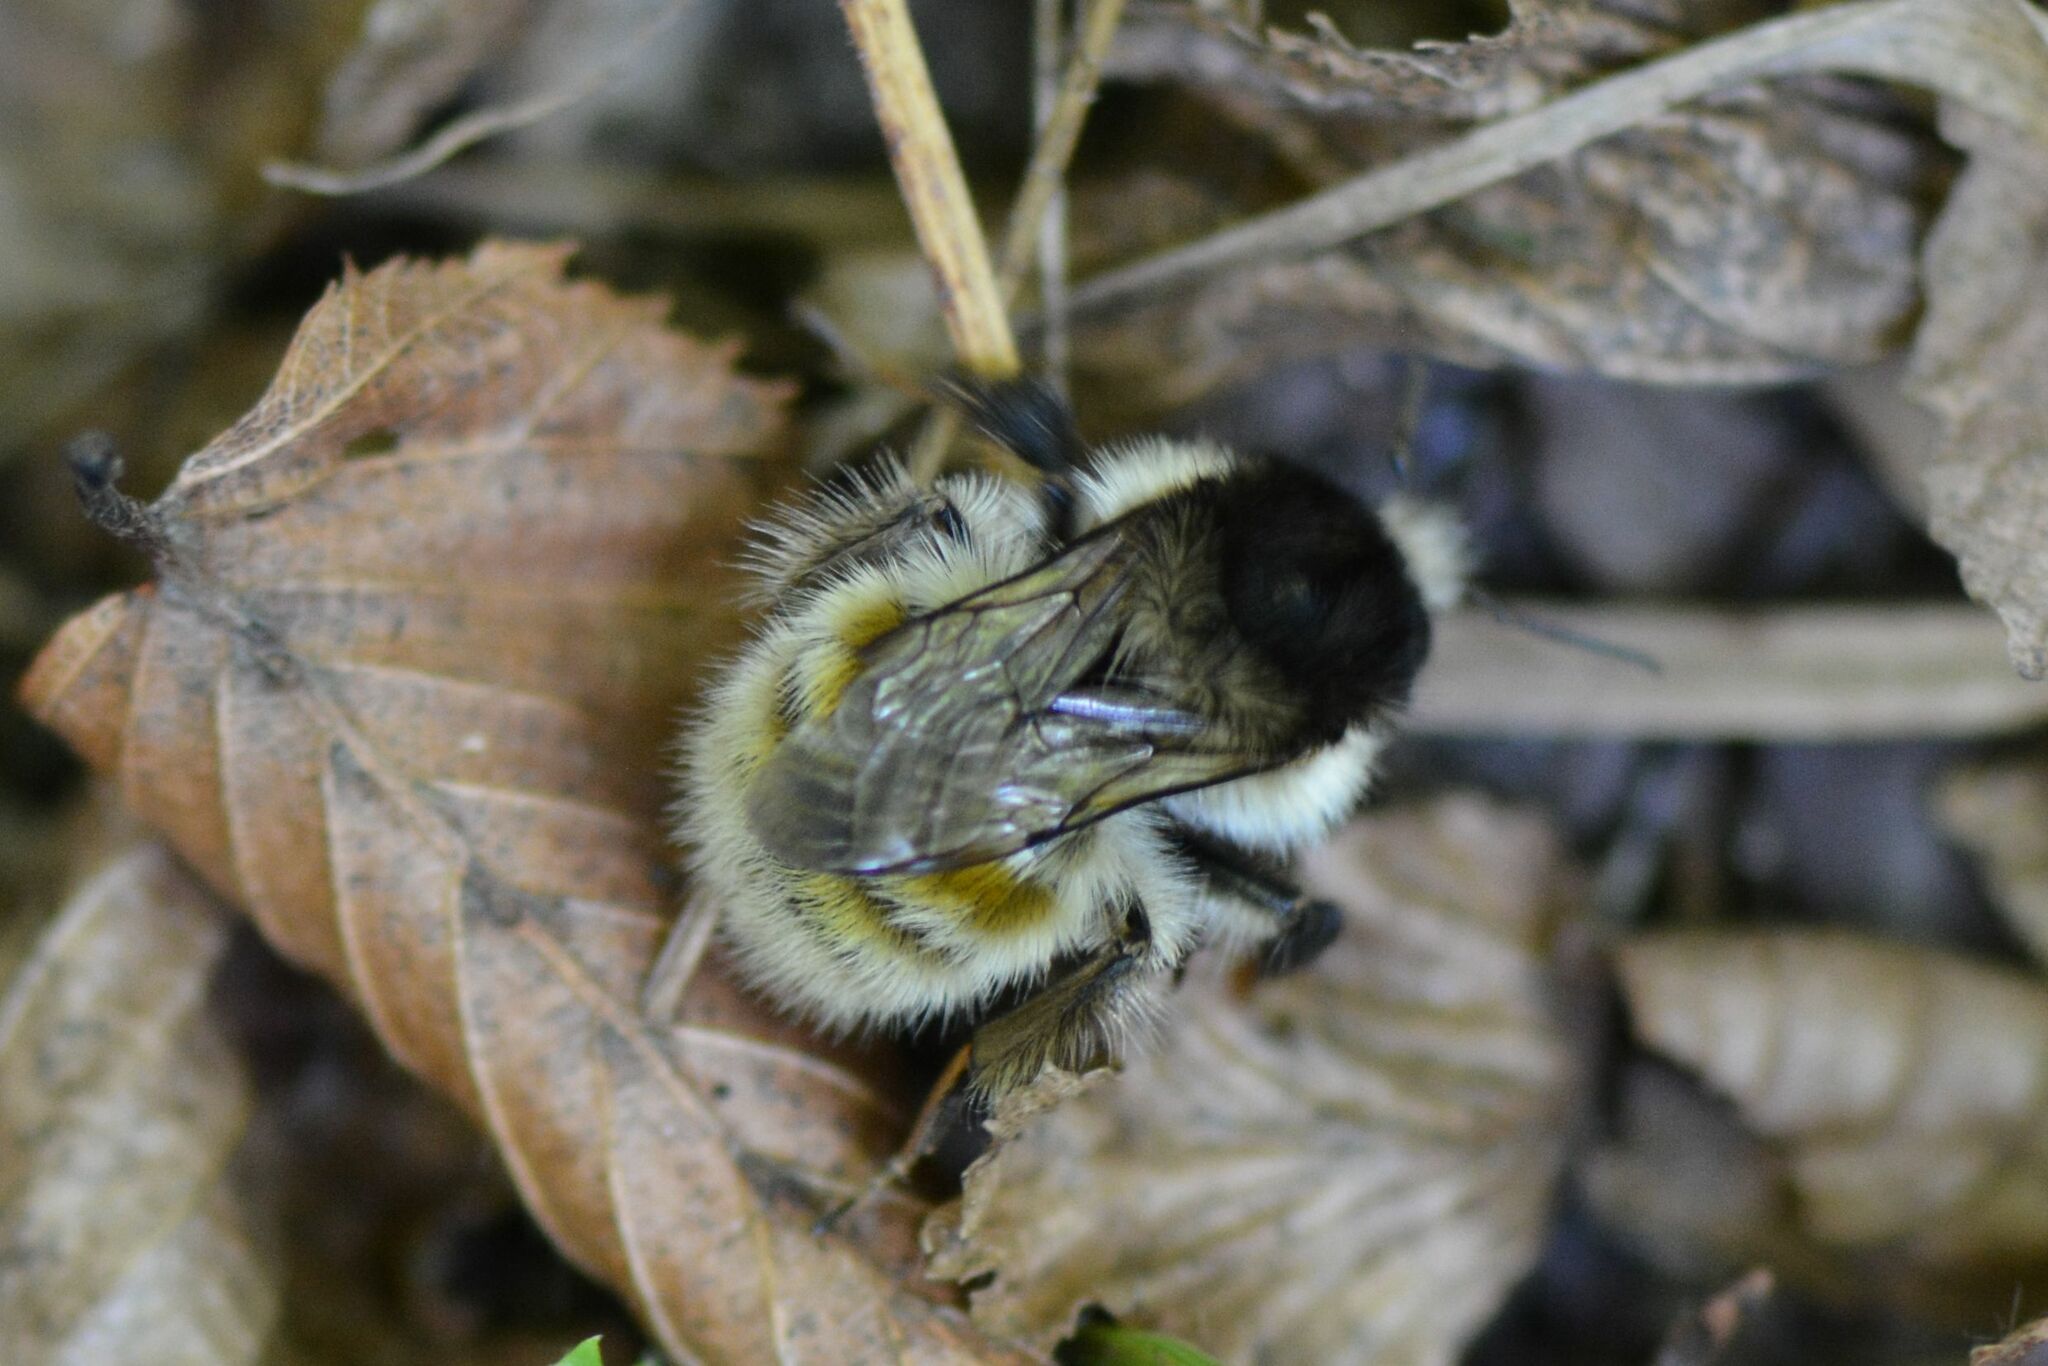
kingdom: Animalia
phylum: Arthropoda
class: Insecta
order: Hymenoptera
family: Apidae
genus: Bombus
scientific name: Bombus humilis
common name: Brown-banded carder-bee
